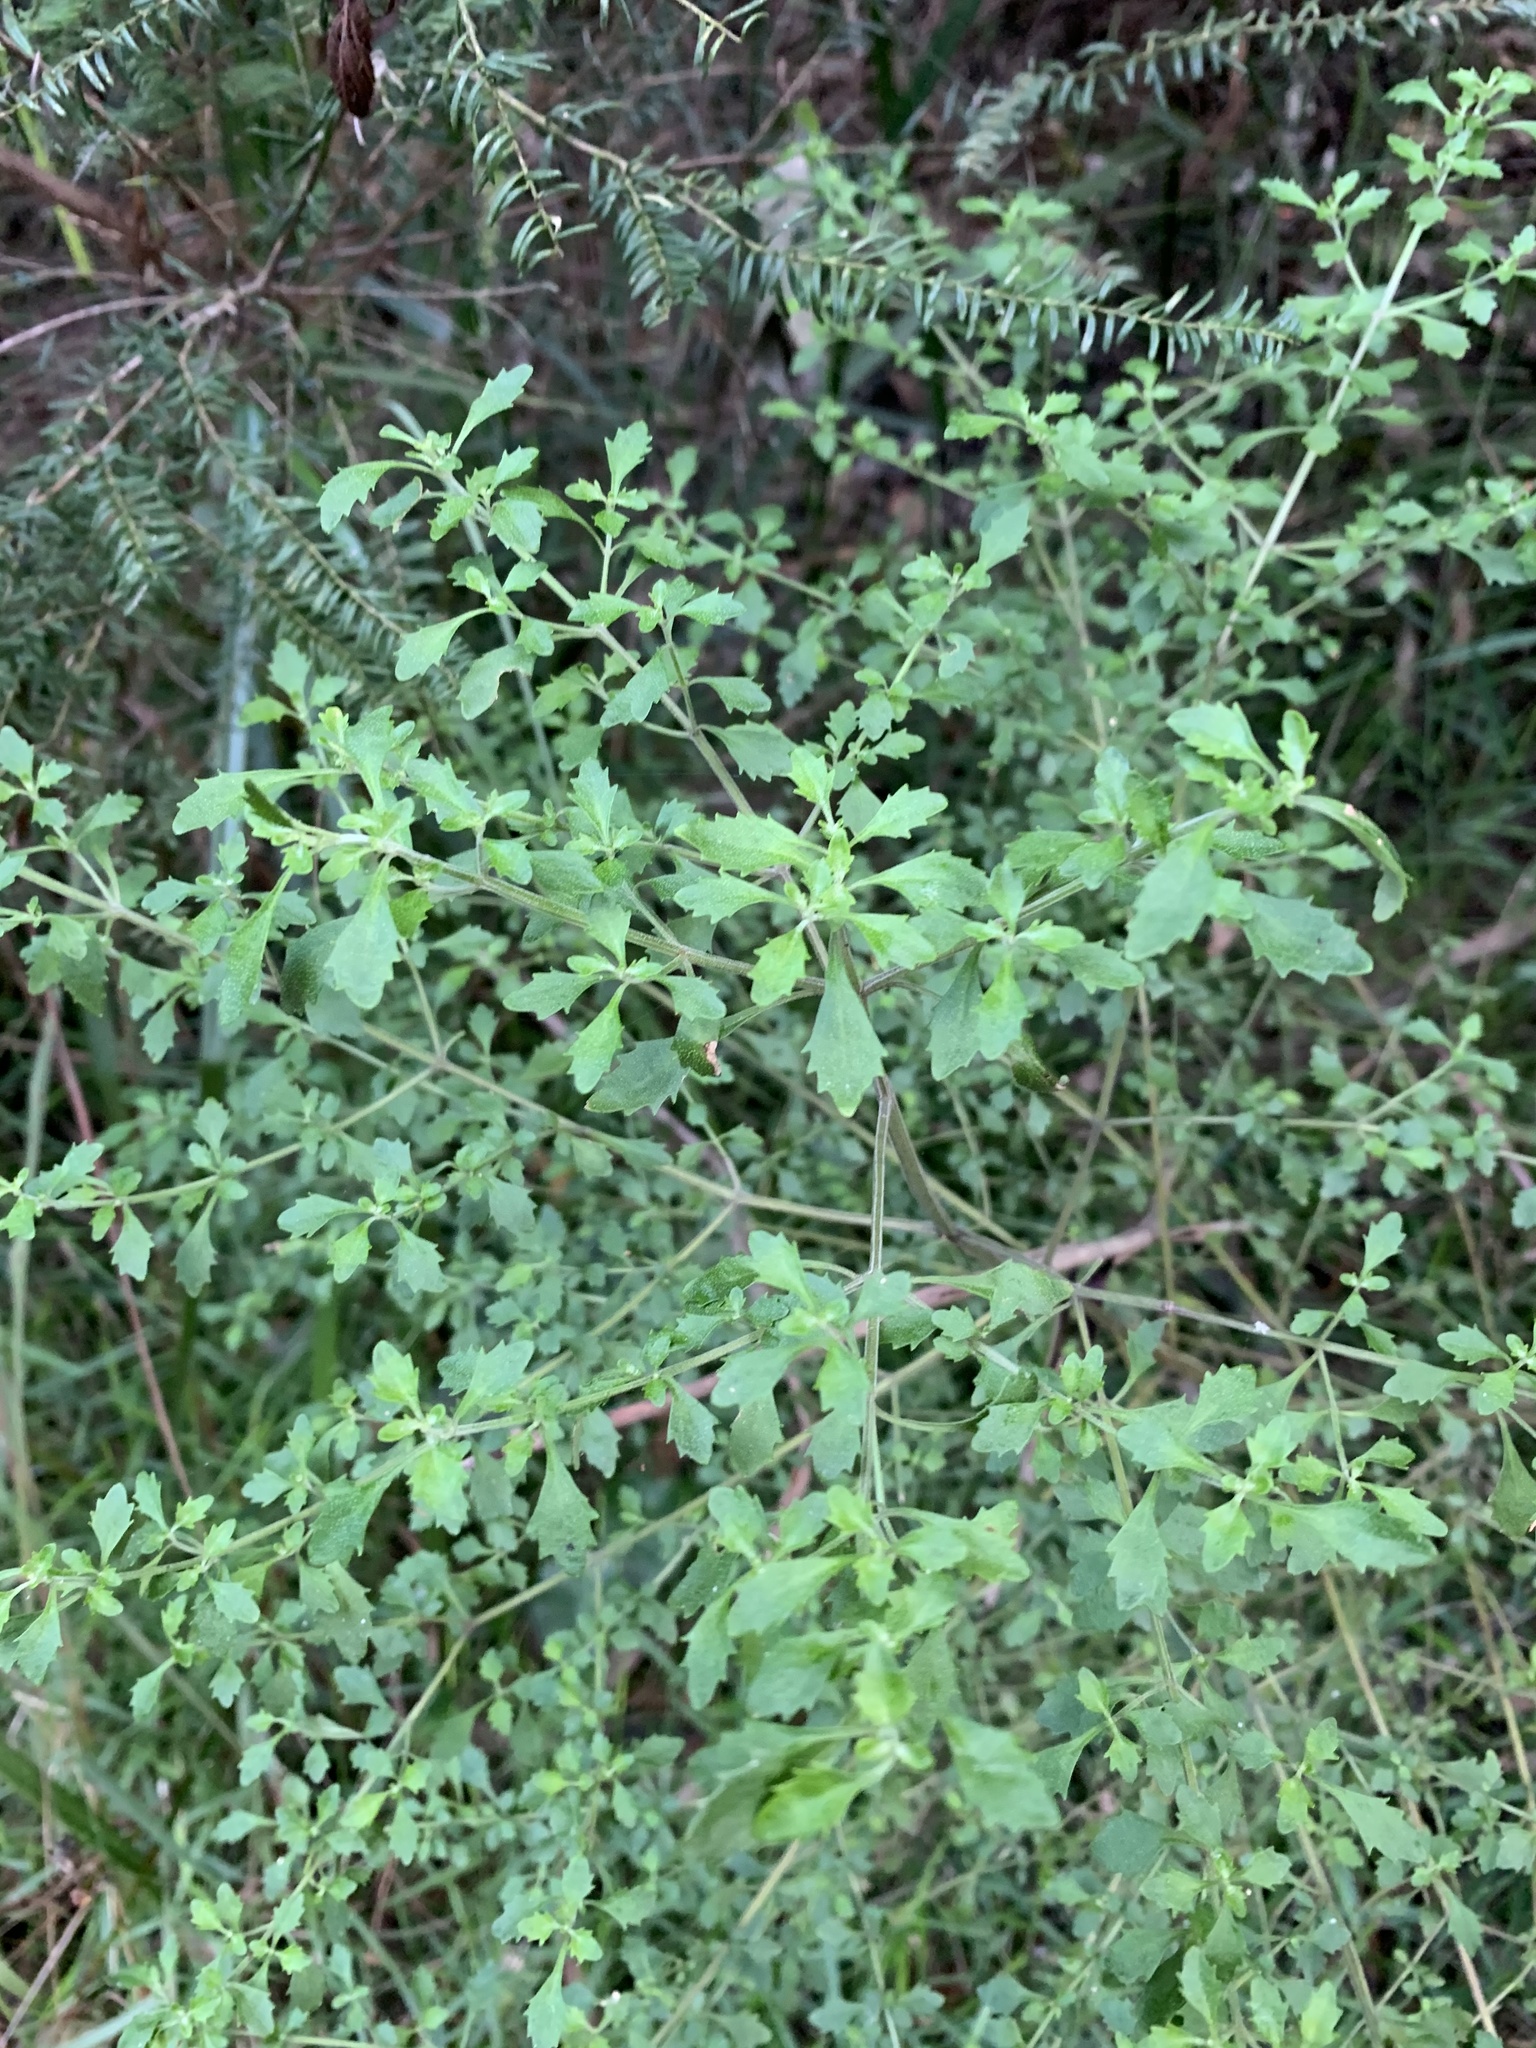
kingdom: Plantae
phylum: Tracheophyta
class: Magnoliopsida
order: Lamiales
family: Lamiaceae
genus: Prostanthera
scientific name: Prostanthera incisa
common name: Cut-leaf mintbush
